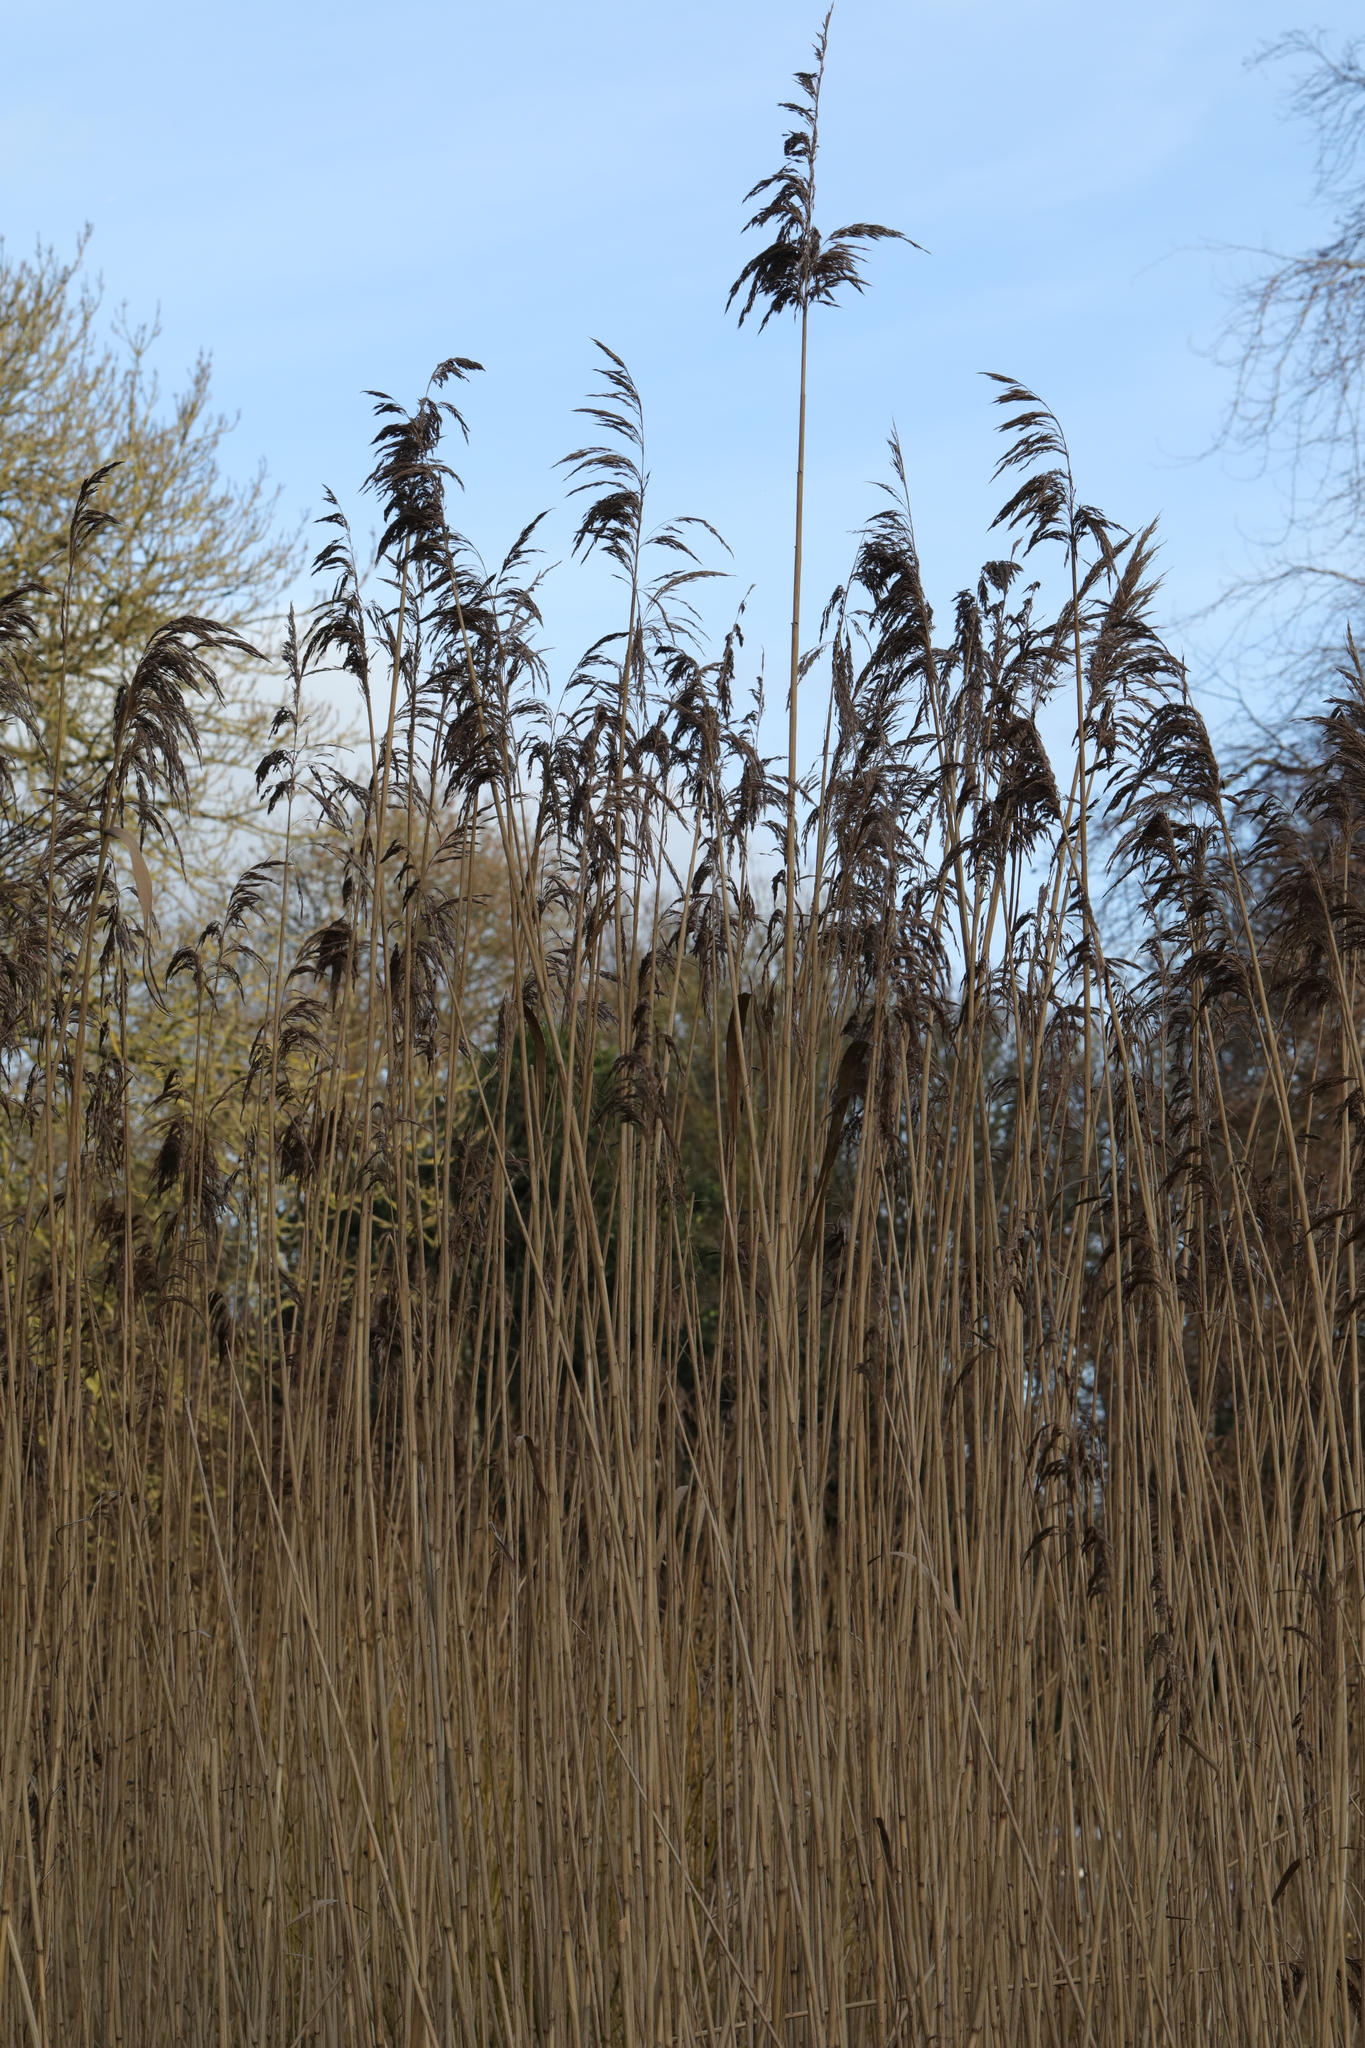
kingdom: Plantae
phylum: Tracheophyta
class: Liliopsida
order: Poales
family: Poaceae
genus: Phragmites
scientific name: Phragmites australis
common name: Common reed
